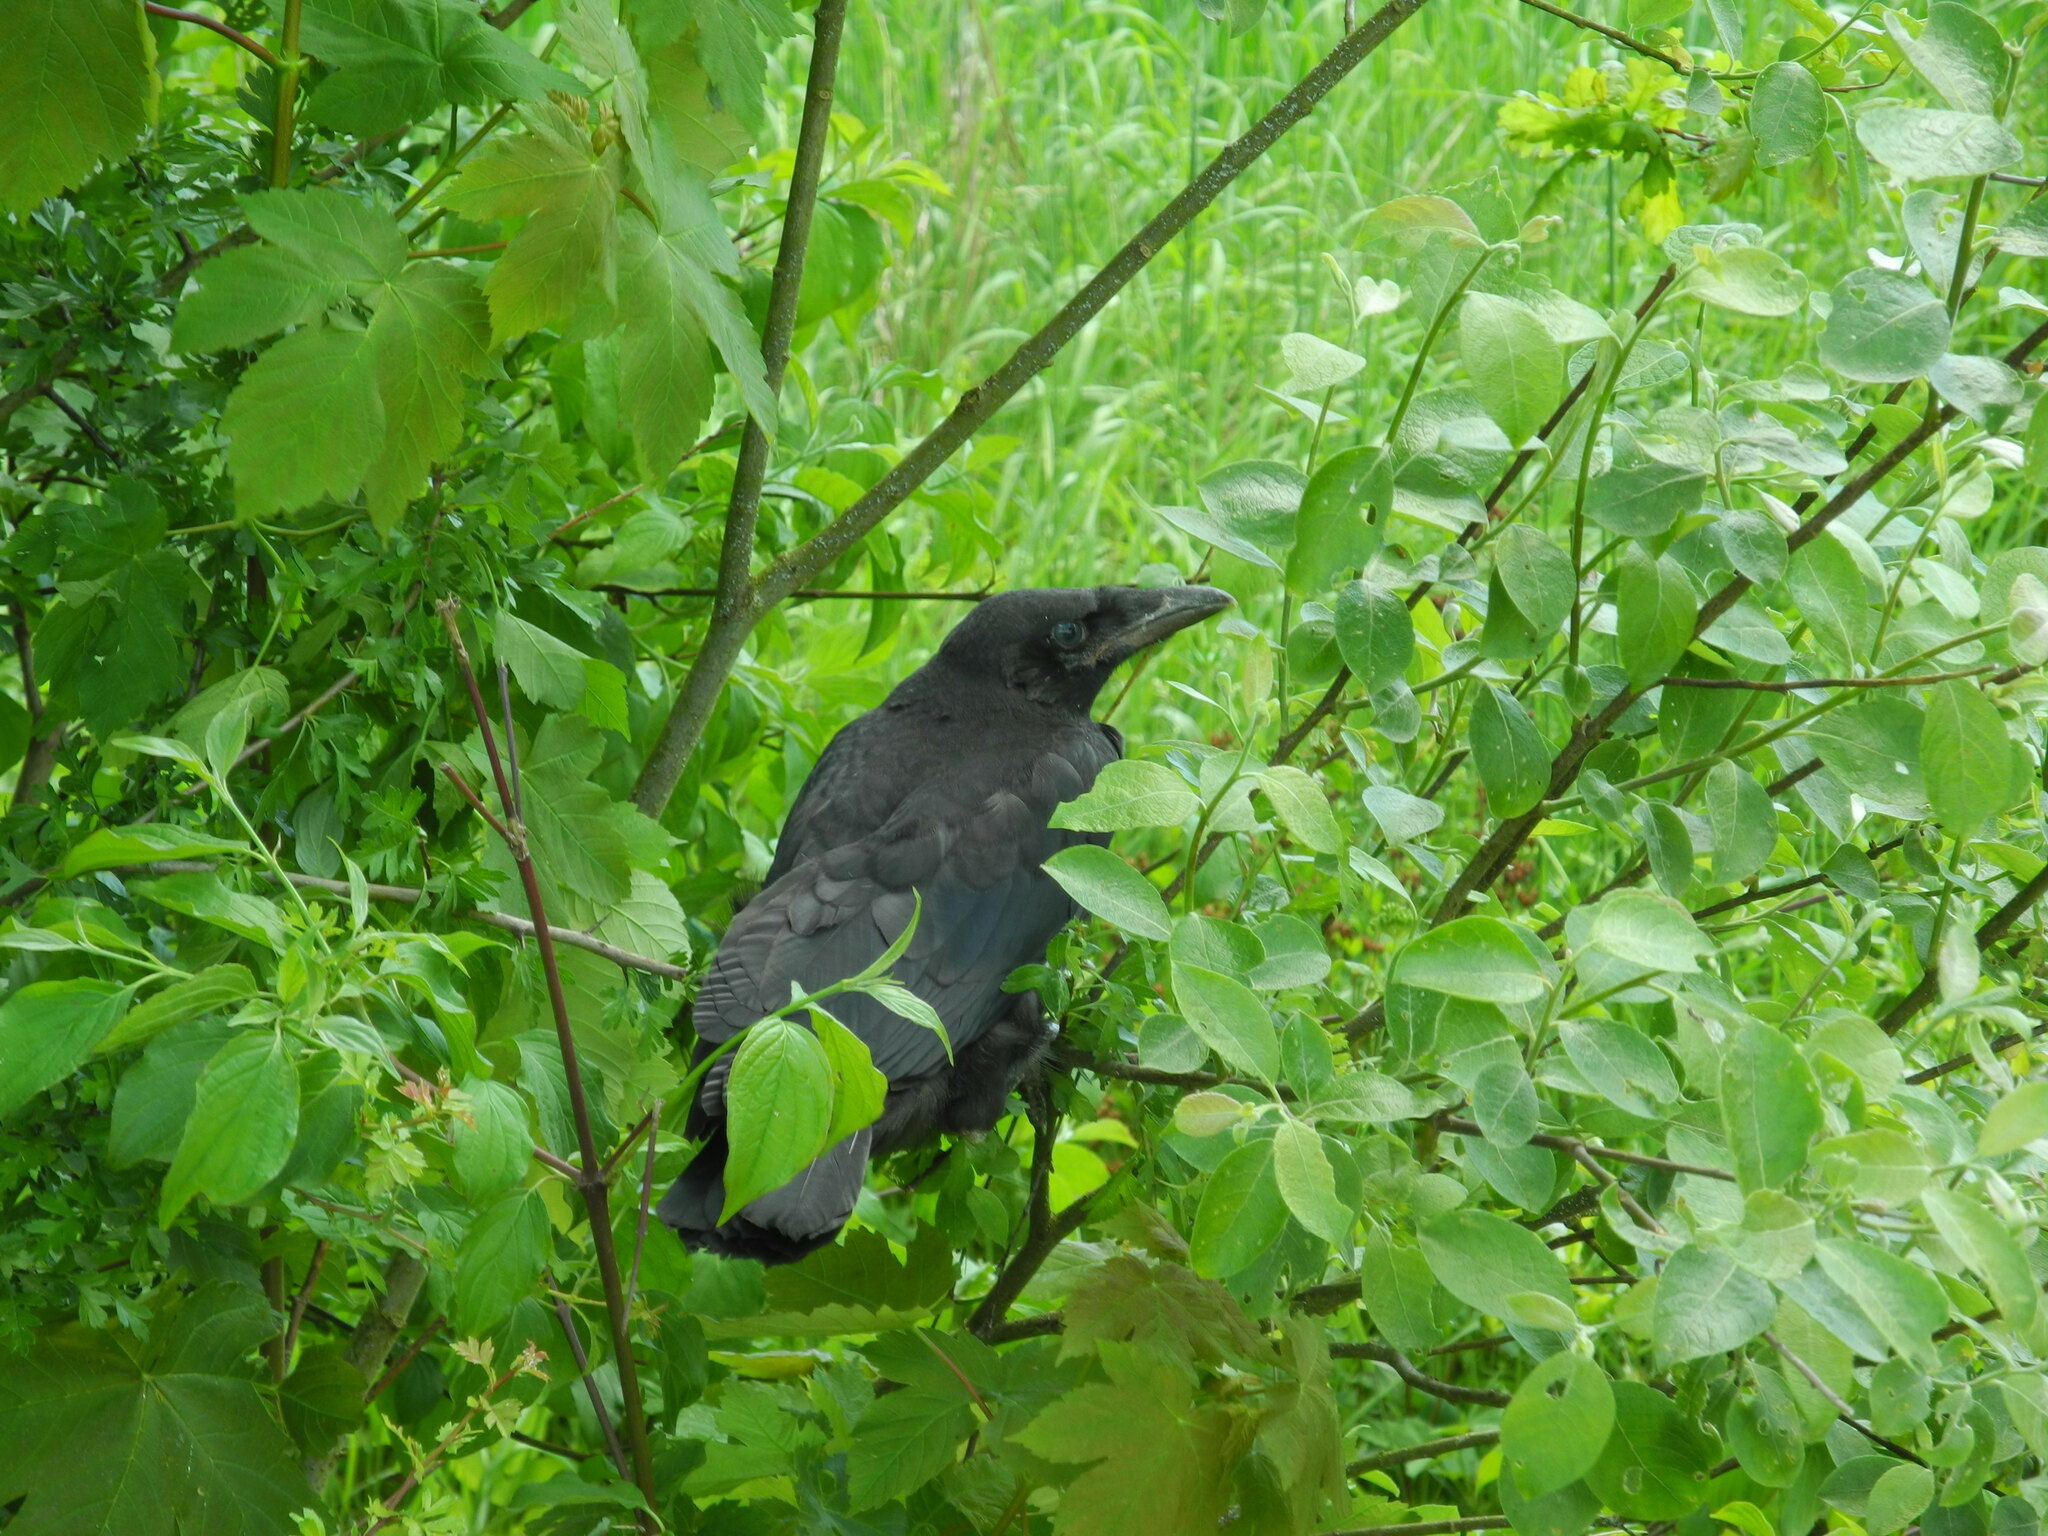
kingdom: Animalia
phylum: Chordata
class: Aves
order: Passeriformes
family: Corvidae
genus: Corvus
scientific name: Corvus corone
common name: Carrion crow
